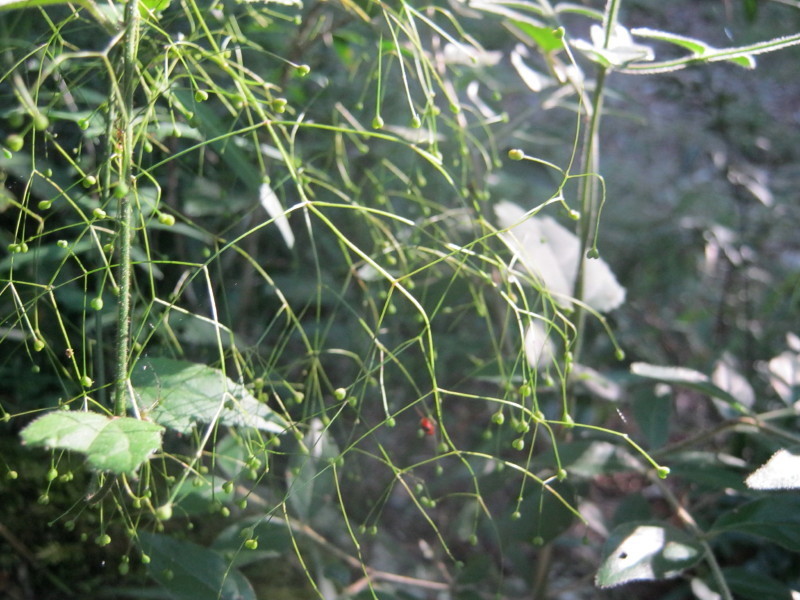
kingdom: Plantae
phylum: Tracheophyta
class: Magnoliopsida
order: Gentianales
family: Rubiaceae
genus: Galopina
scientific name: Galopina circaeoides
